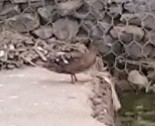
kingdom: Animalia
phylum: Chordata
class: Aves
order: Anseriformes
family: Anatidae
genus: Anas
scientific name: Anas sparsa
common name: African black duck
